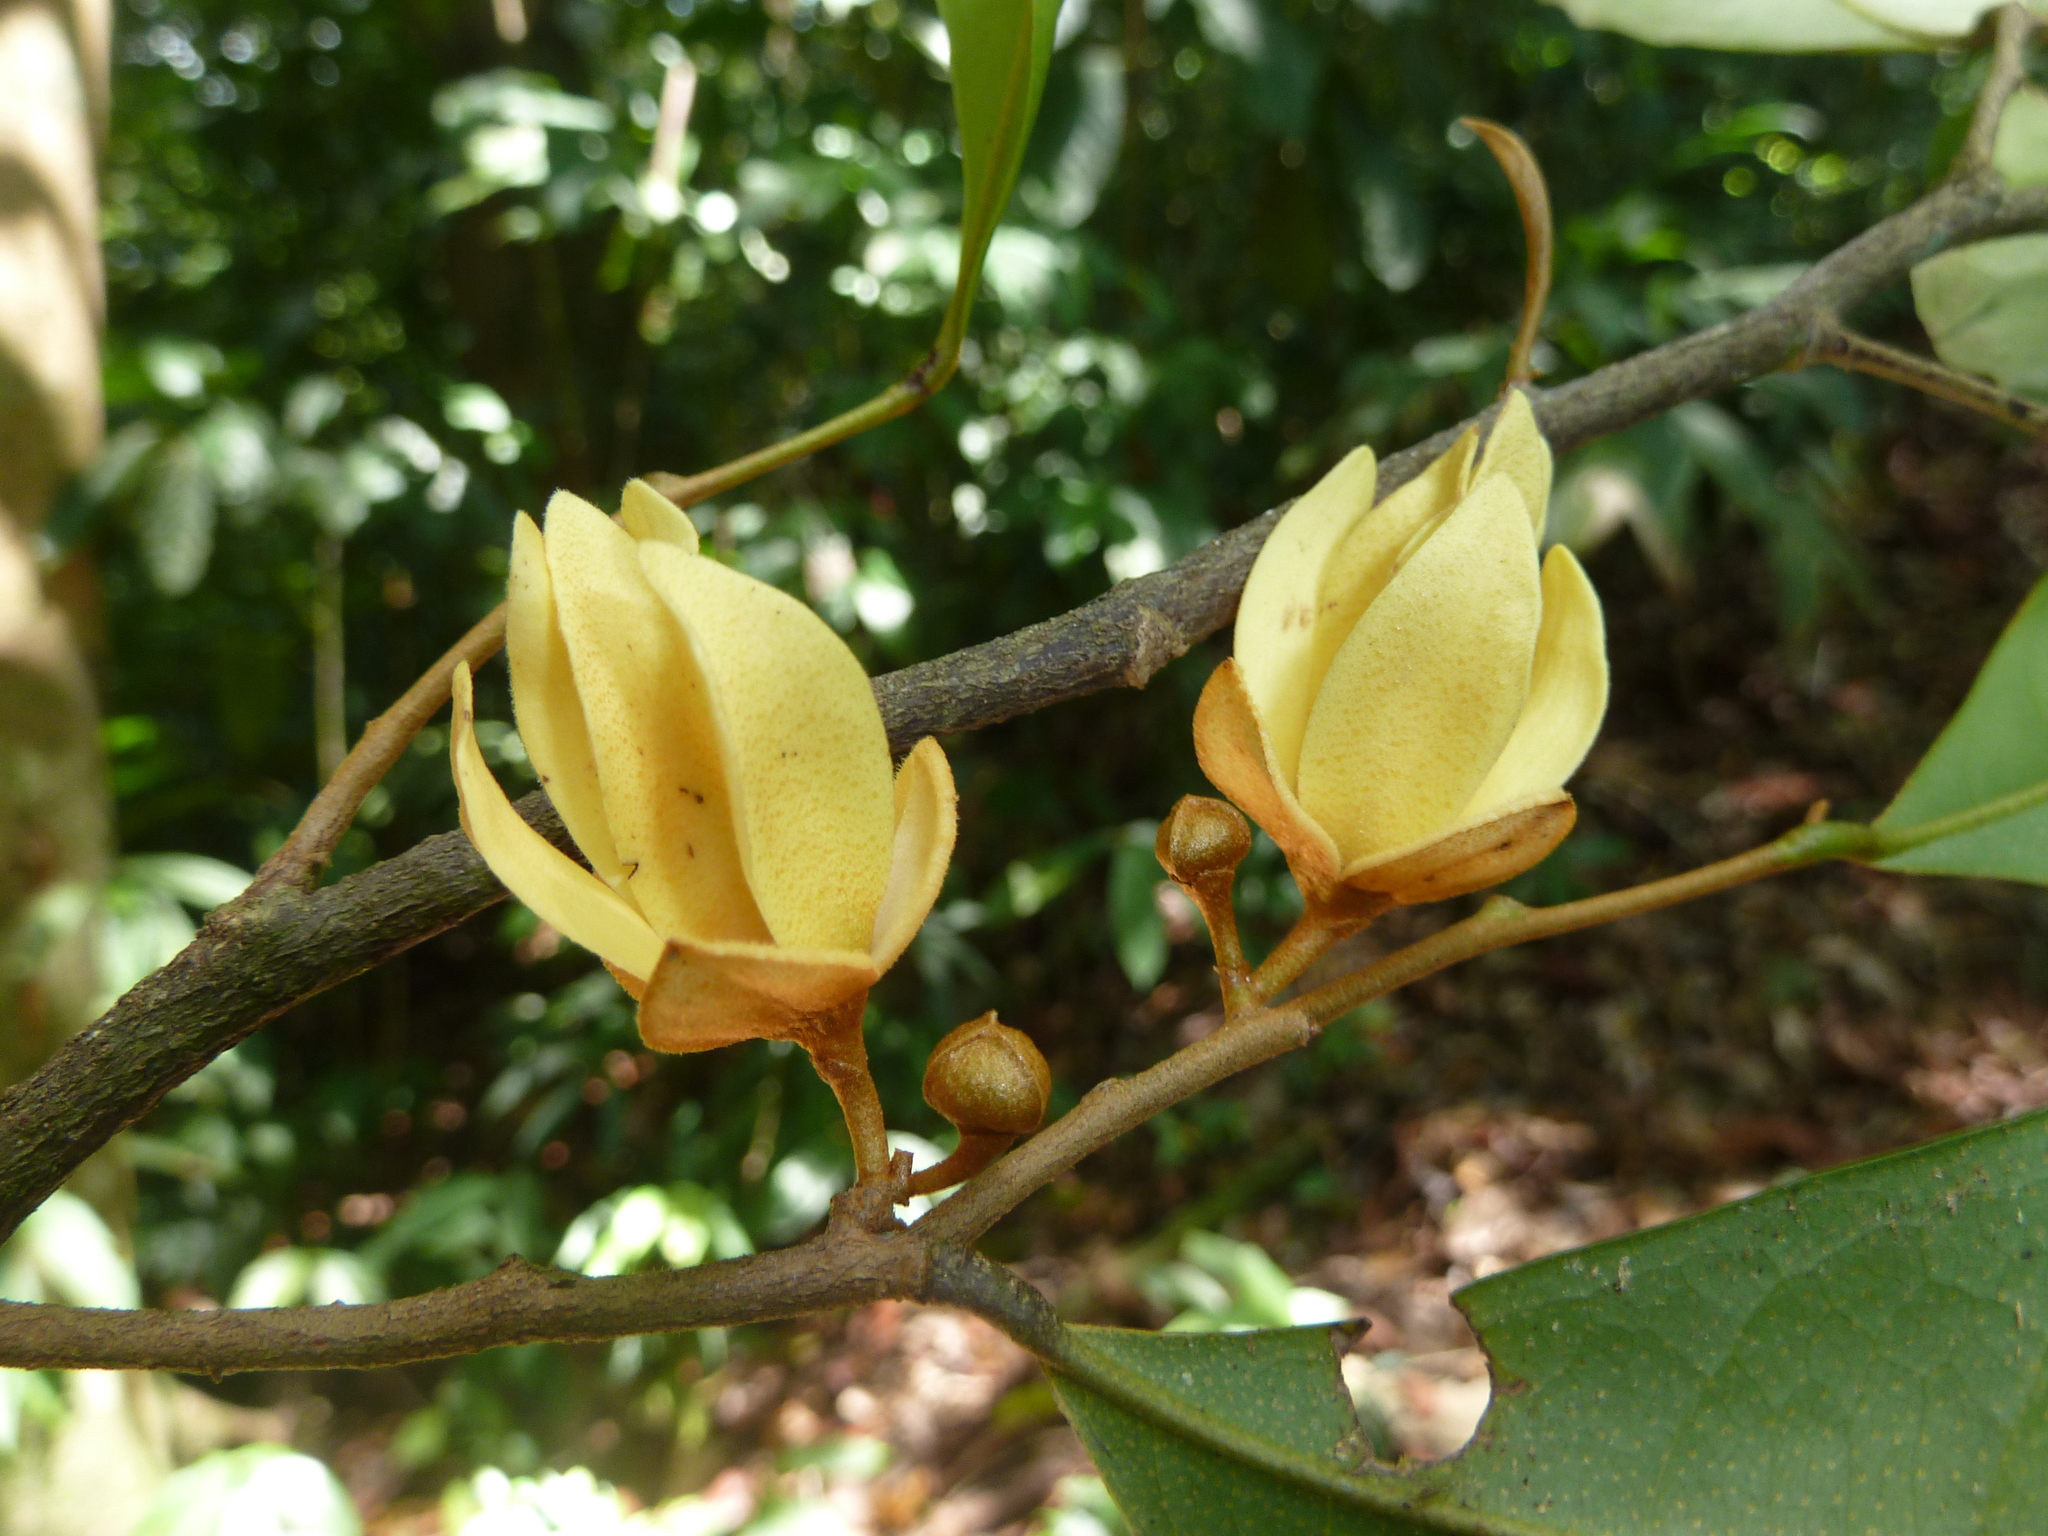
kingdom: Plantae
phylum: Tracheophyta
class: Magnoliopsida
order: Magnoliales
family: Annonaceae
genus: Duguetia
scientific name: Duguetia confusa
